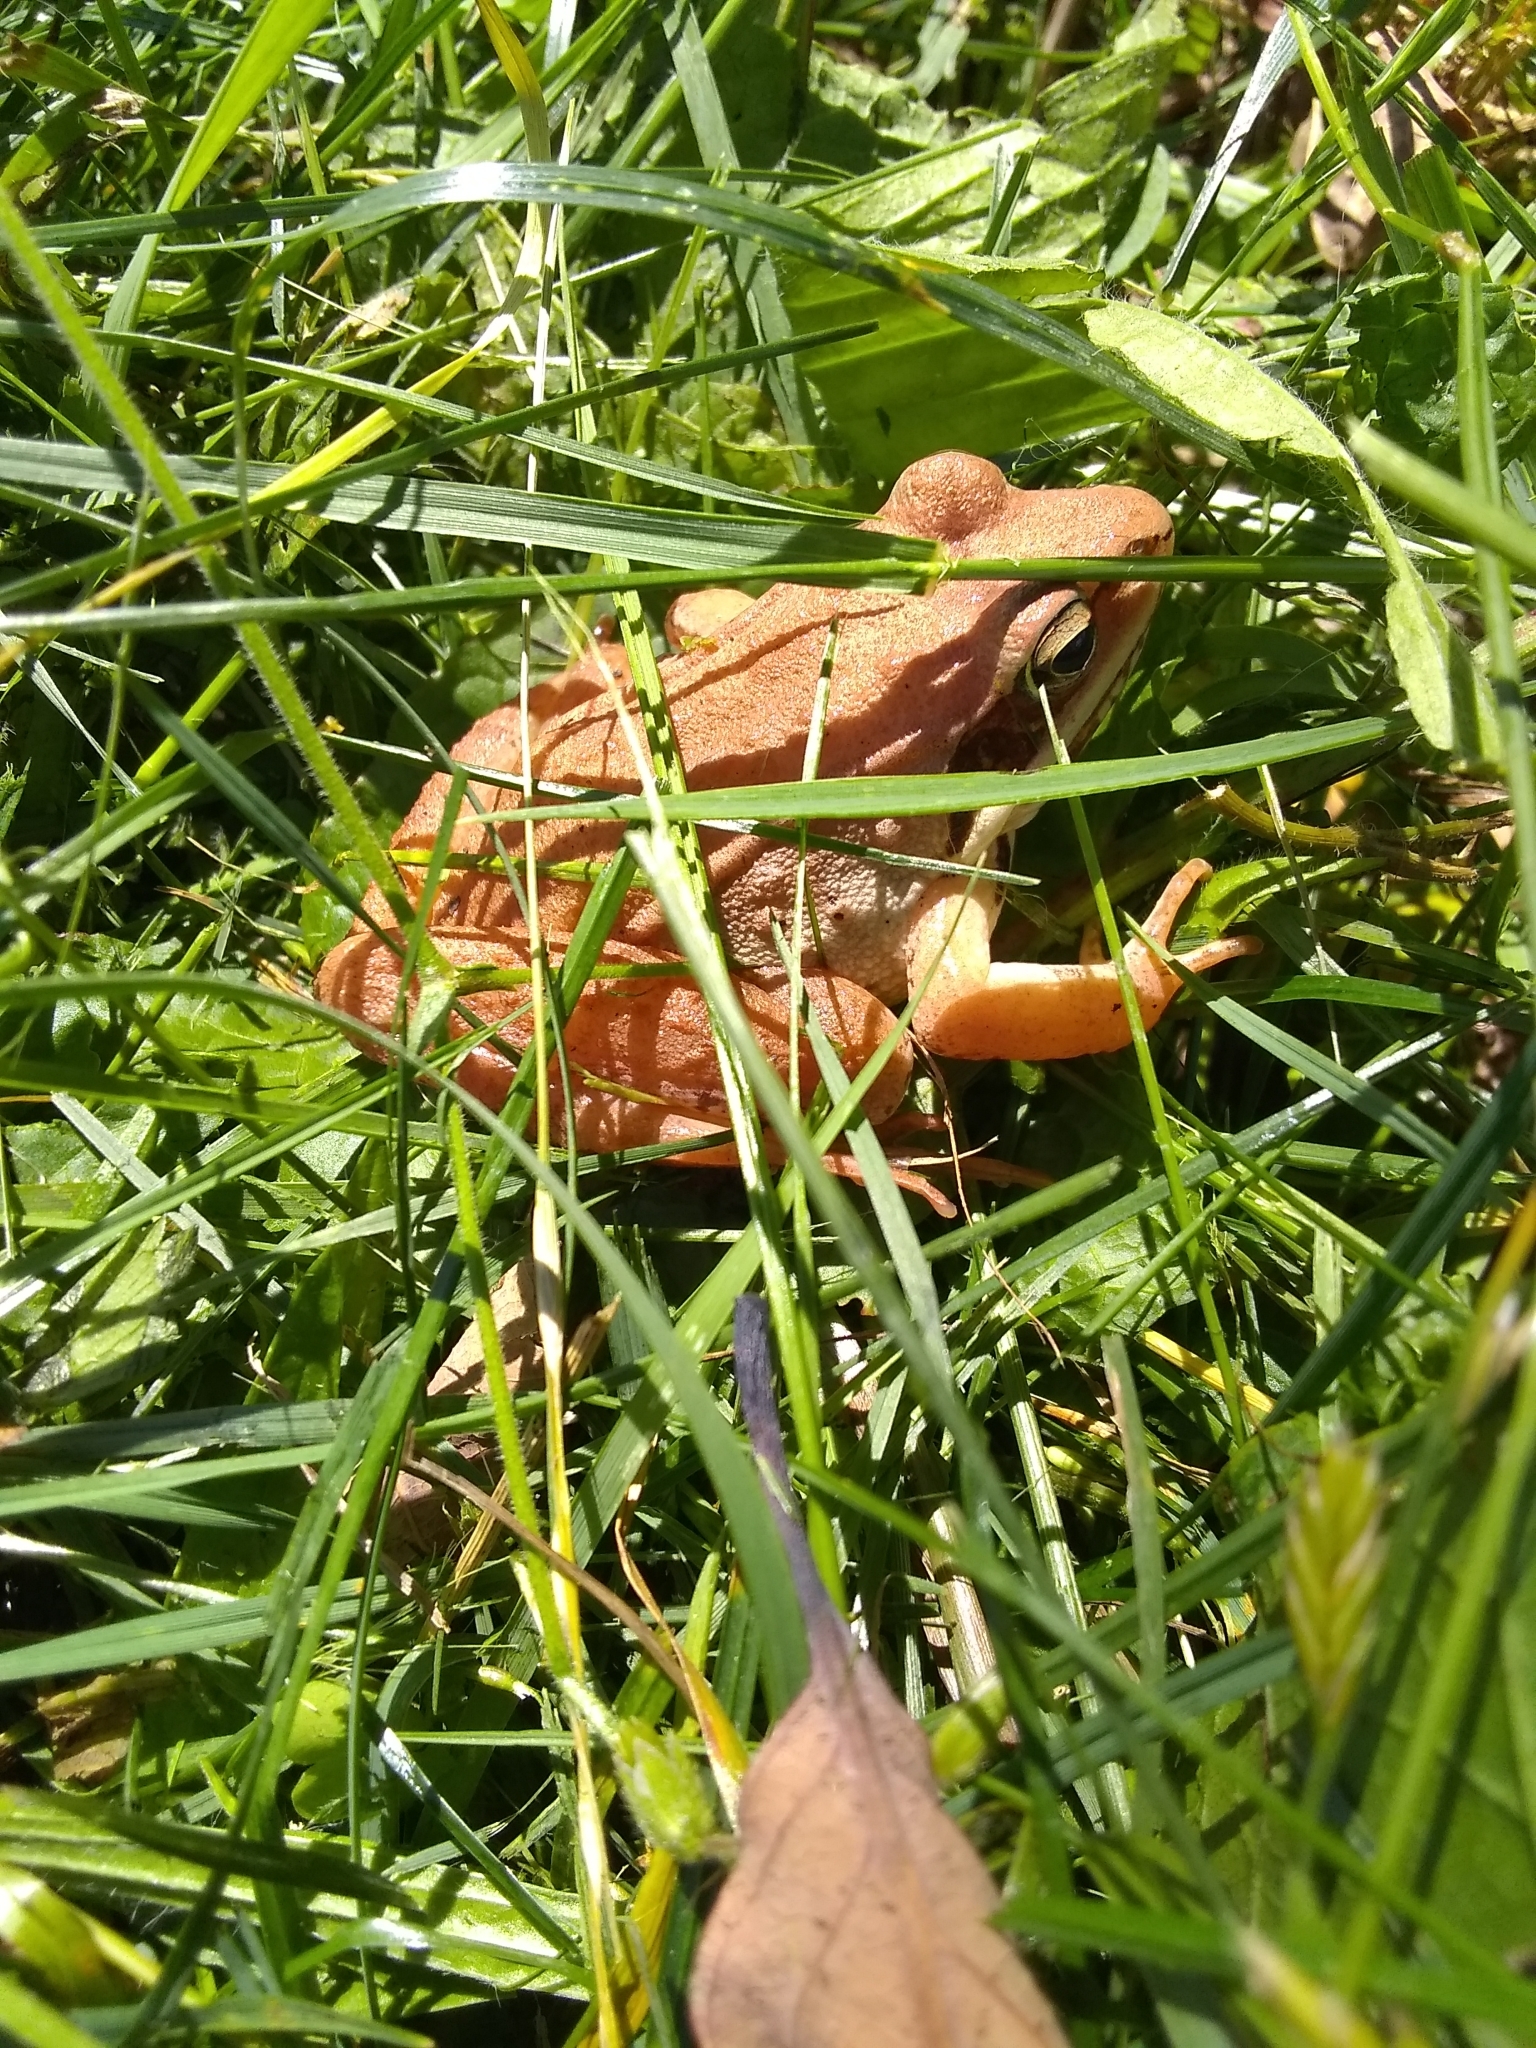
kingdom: Animalia
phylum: Chordata
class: Amphibia
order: Anura
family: Ranidae
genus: Lithobates
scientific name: Lithobates sylvaticus
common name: Wood frog
